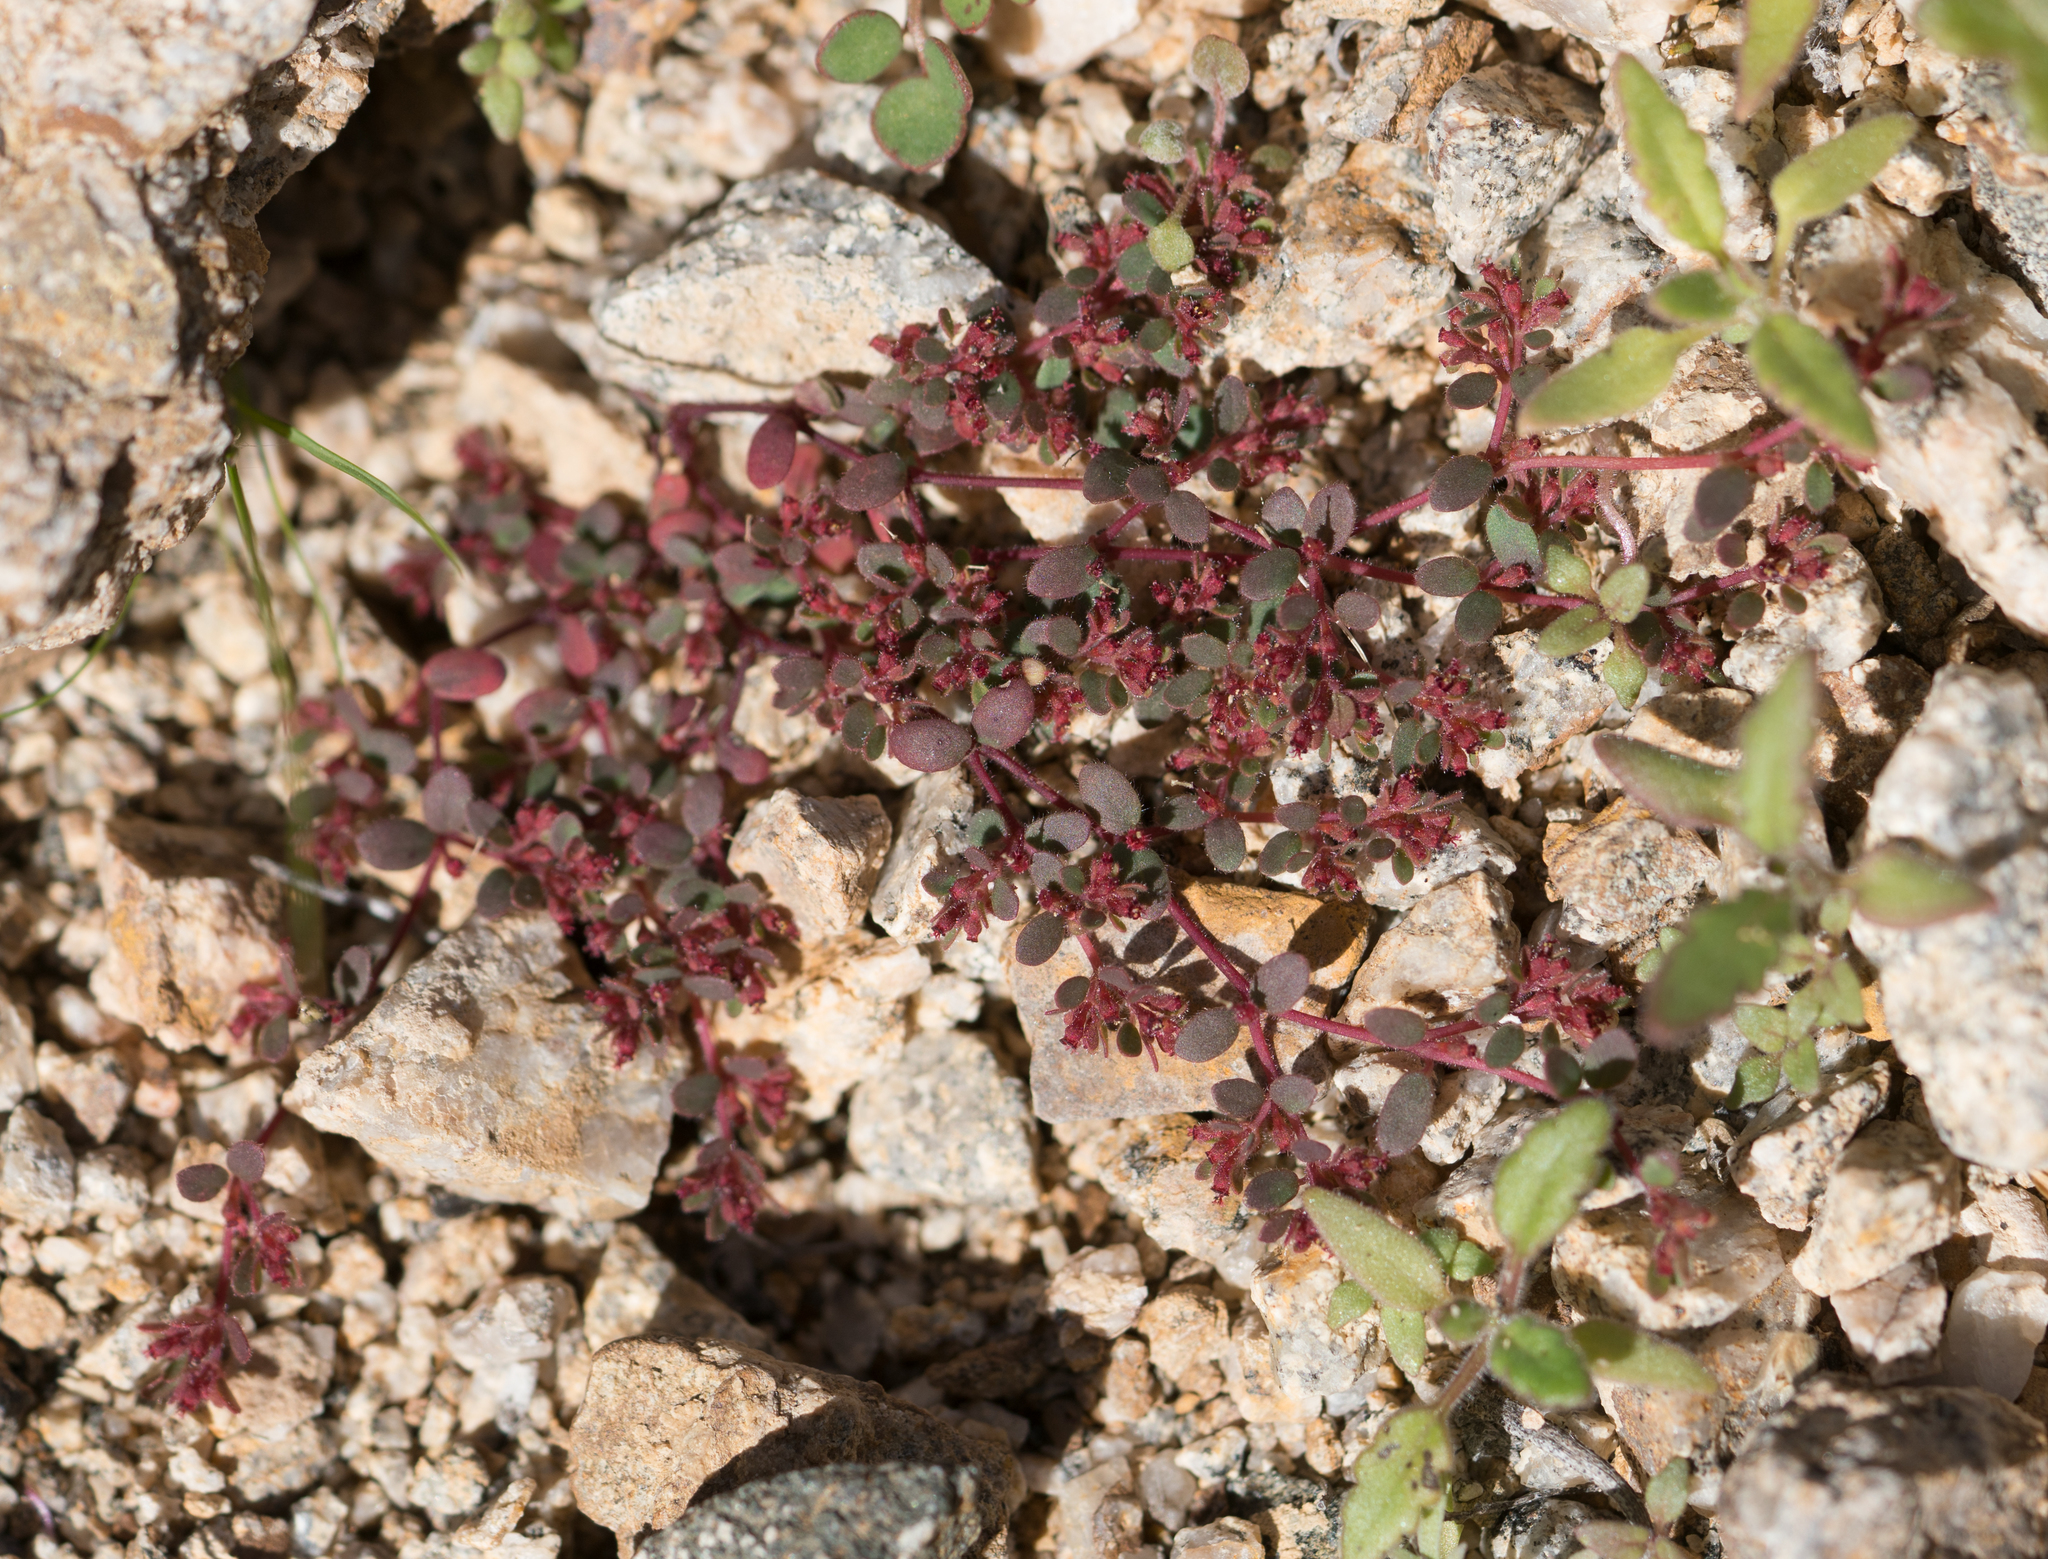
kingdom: Plantae
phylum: Tracheophyta
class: Magnoliopsida
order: Malpighiales
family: Euphorbiaceae
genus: Euphorbia
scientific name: Euphorbia setiloba
